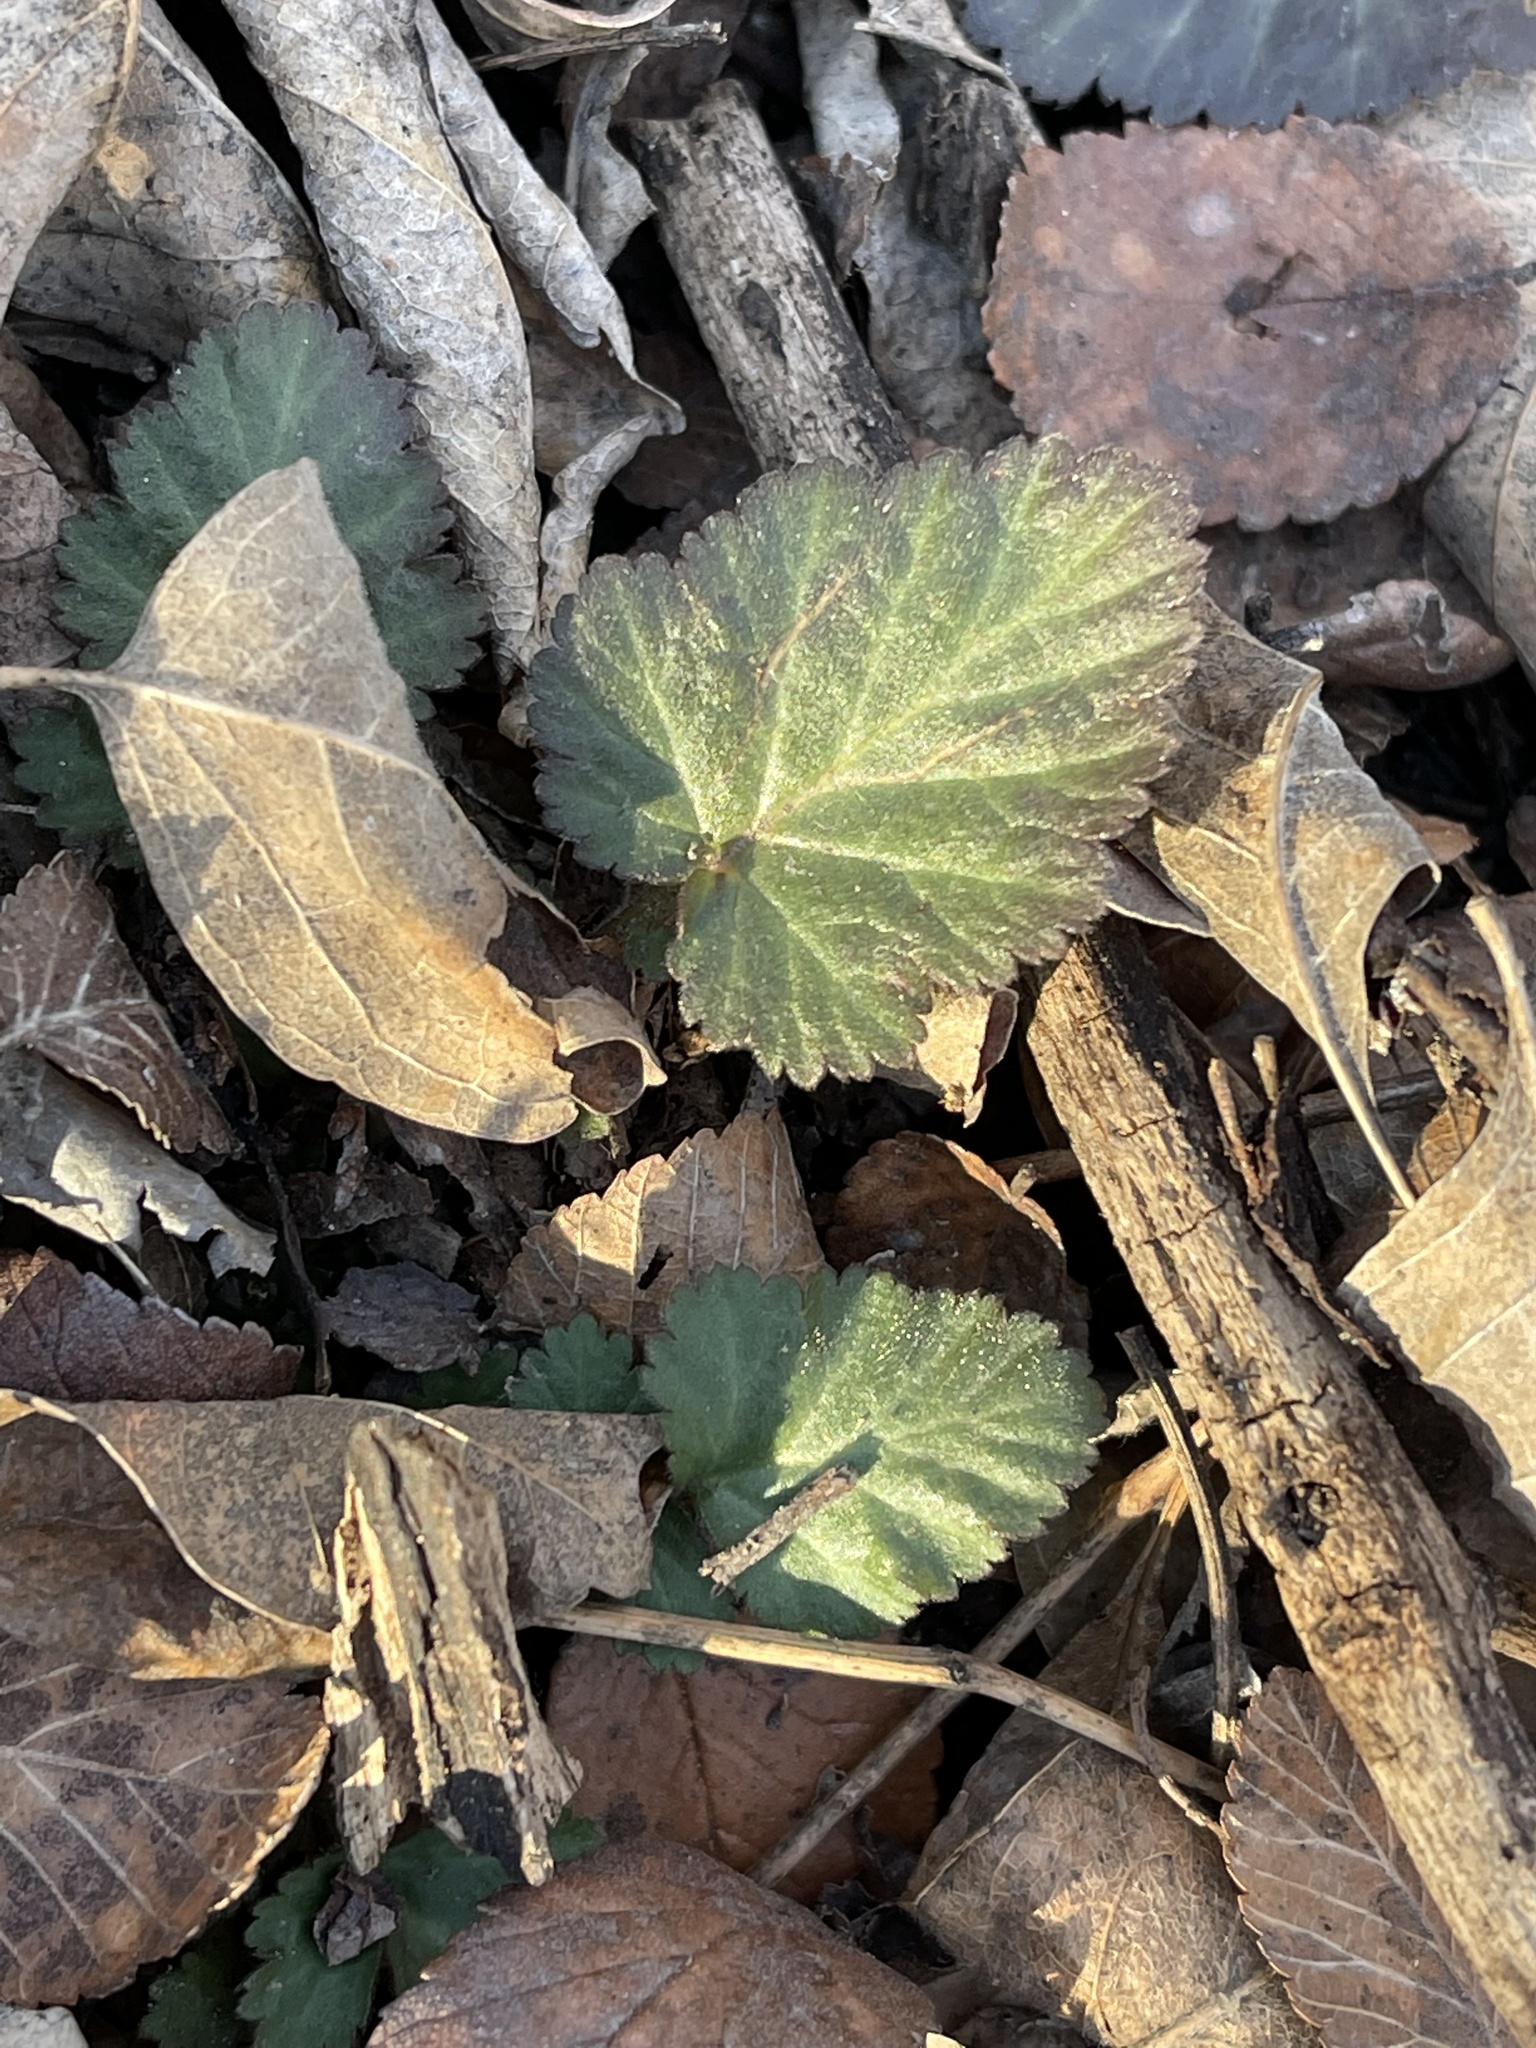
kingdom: Plantae
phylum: Tracheophyta
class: Magnoliopsida
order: Rosales
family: Rosaceae
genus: Geum
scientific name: Geum canadense
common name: White avens
